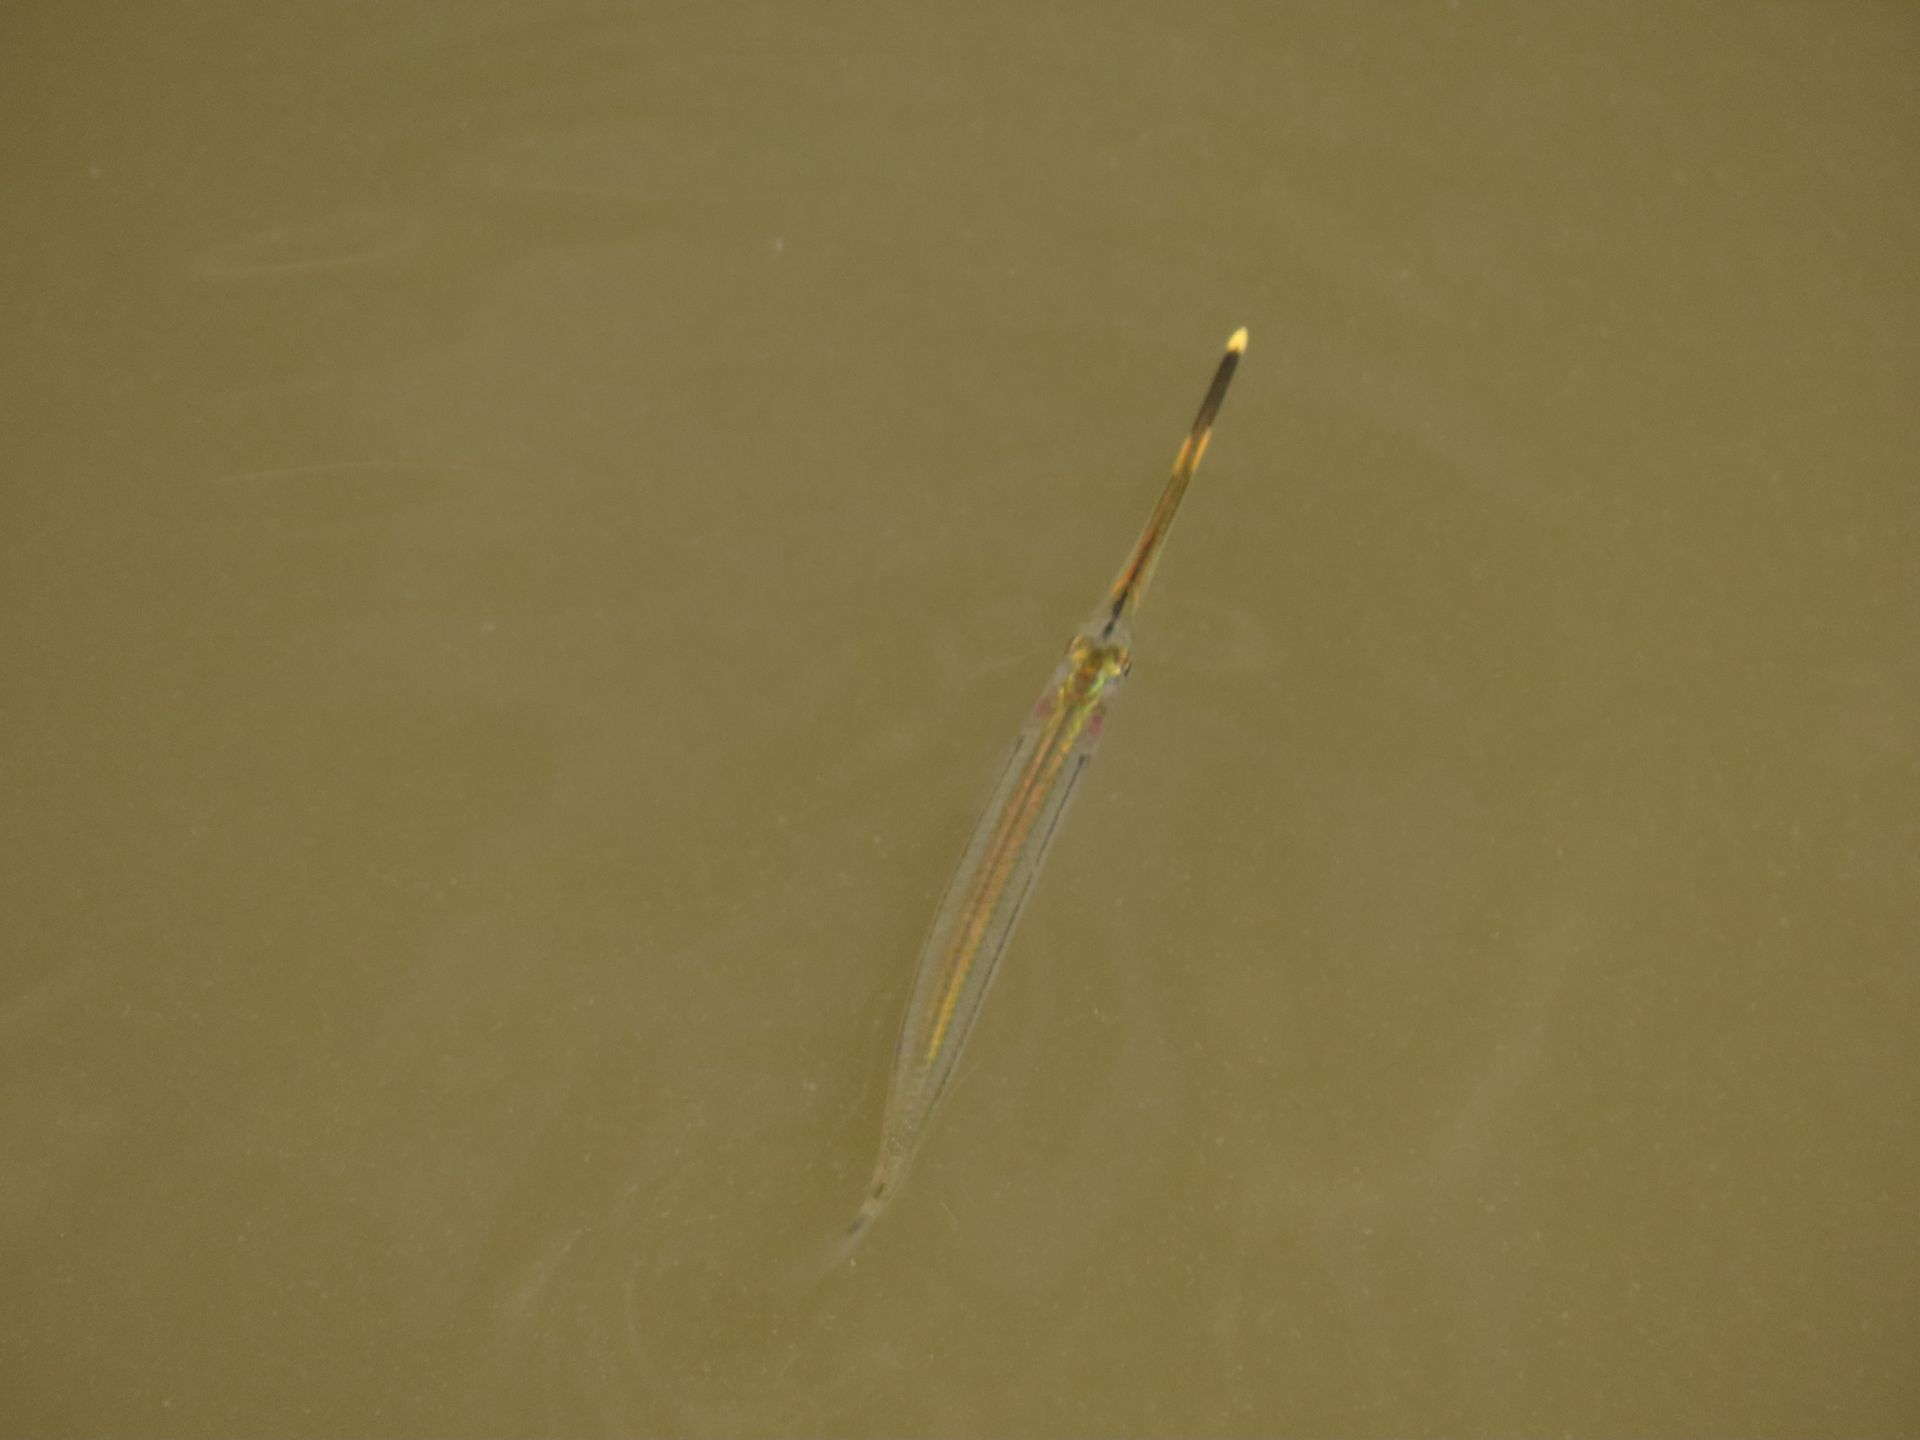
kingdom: Animalia
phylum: Chordata
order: Beloniformes
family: Zenarchopteridae
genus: Zenarchopterus
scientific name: Zenarchopterus buffonis
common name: Buffon's river-garfish
